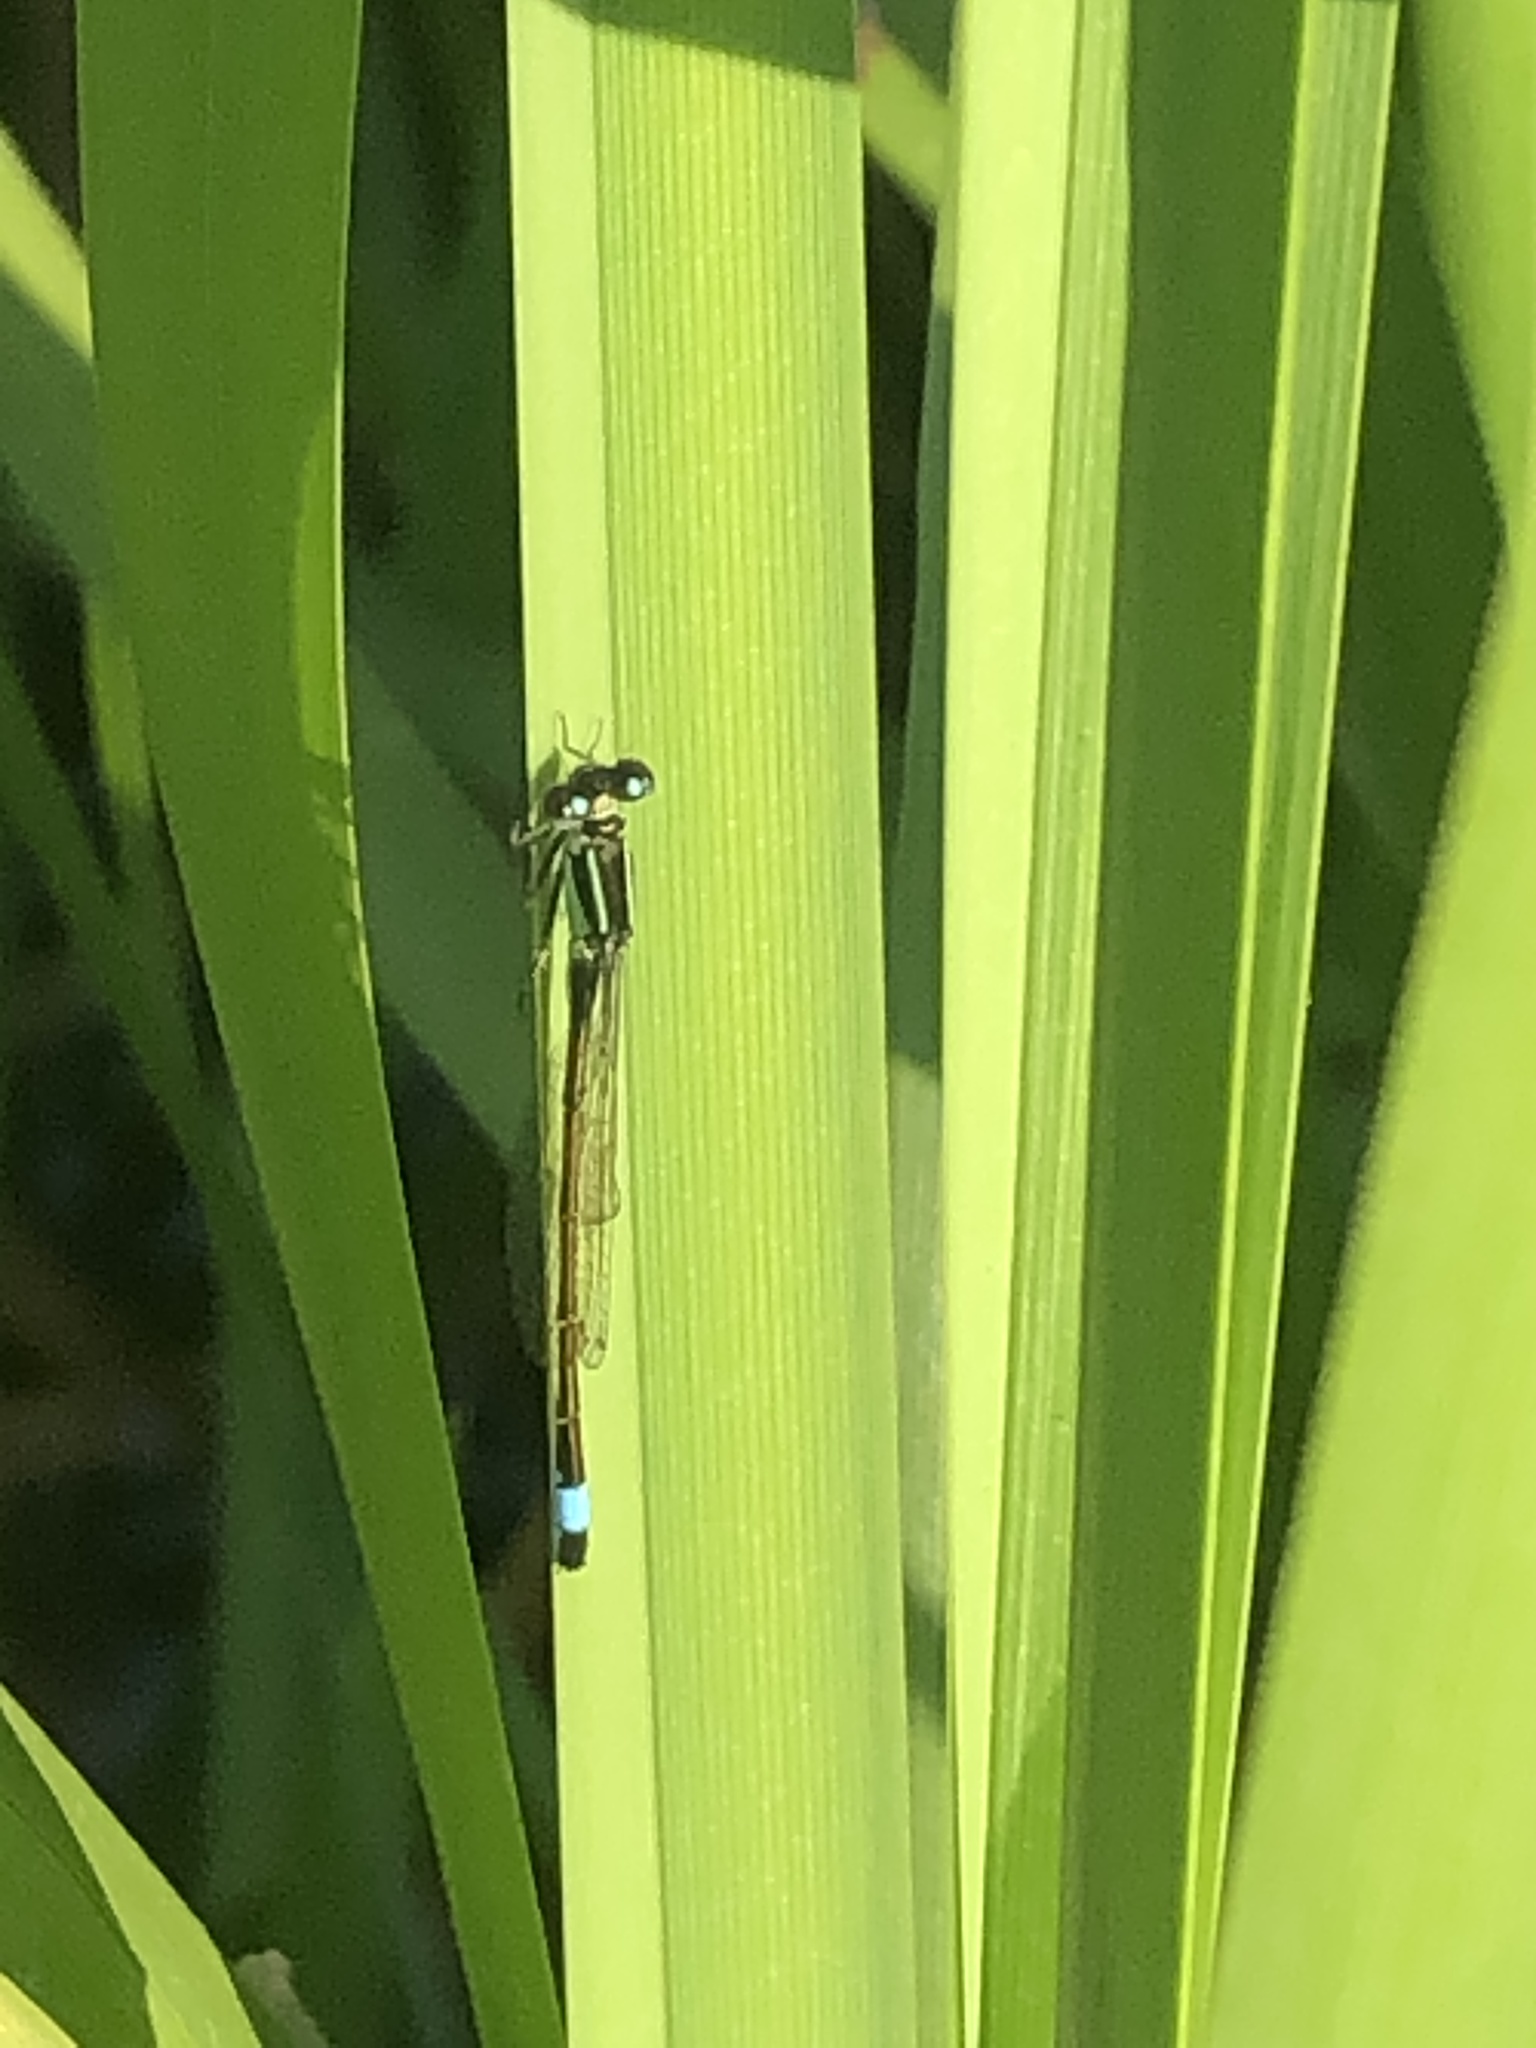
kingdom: Animalia
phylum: Arthropoda
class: Insecta
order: Odonata
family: Coenagrionidae
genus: Ischnura
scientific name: Ischnura elegans
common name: Blue-tailed damselfly
